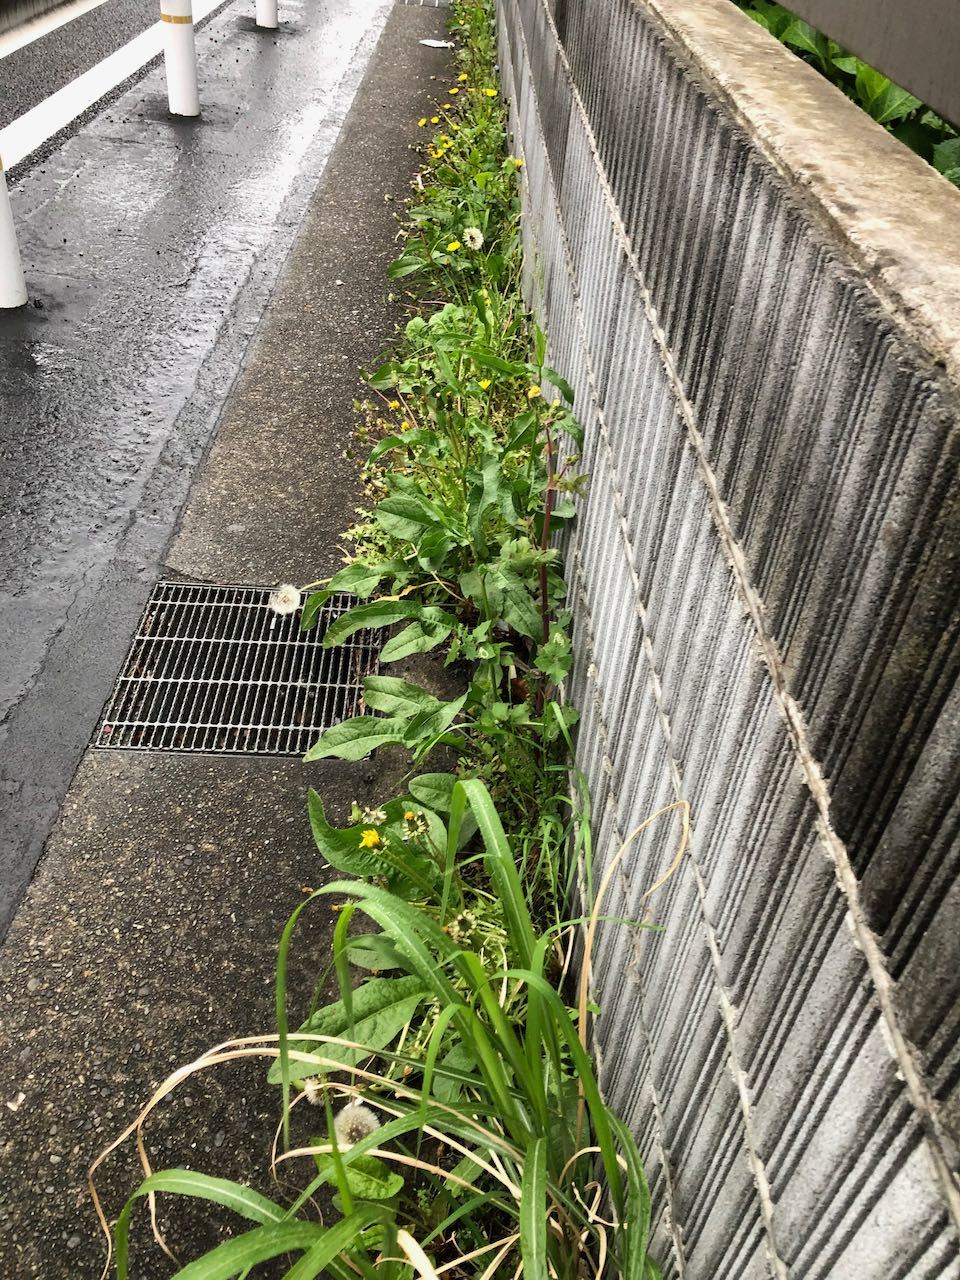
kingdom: Plantae
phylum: Tracheophyta
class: Magnoliopsida
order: Asterales
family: Asteraceae
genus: Taraxacum
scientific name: Taraxacum officinale
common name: Common dandelion
